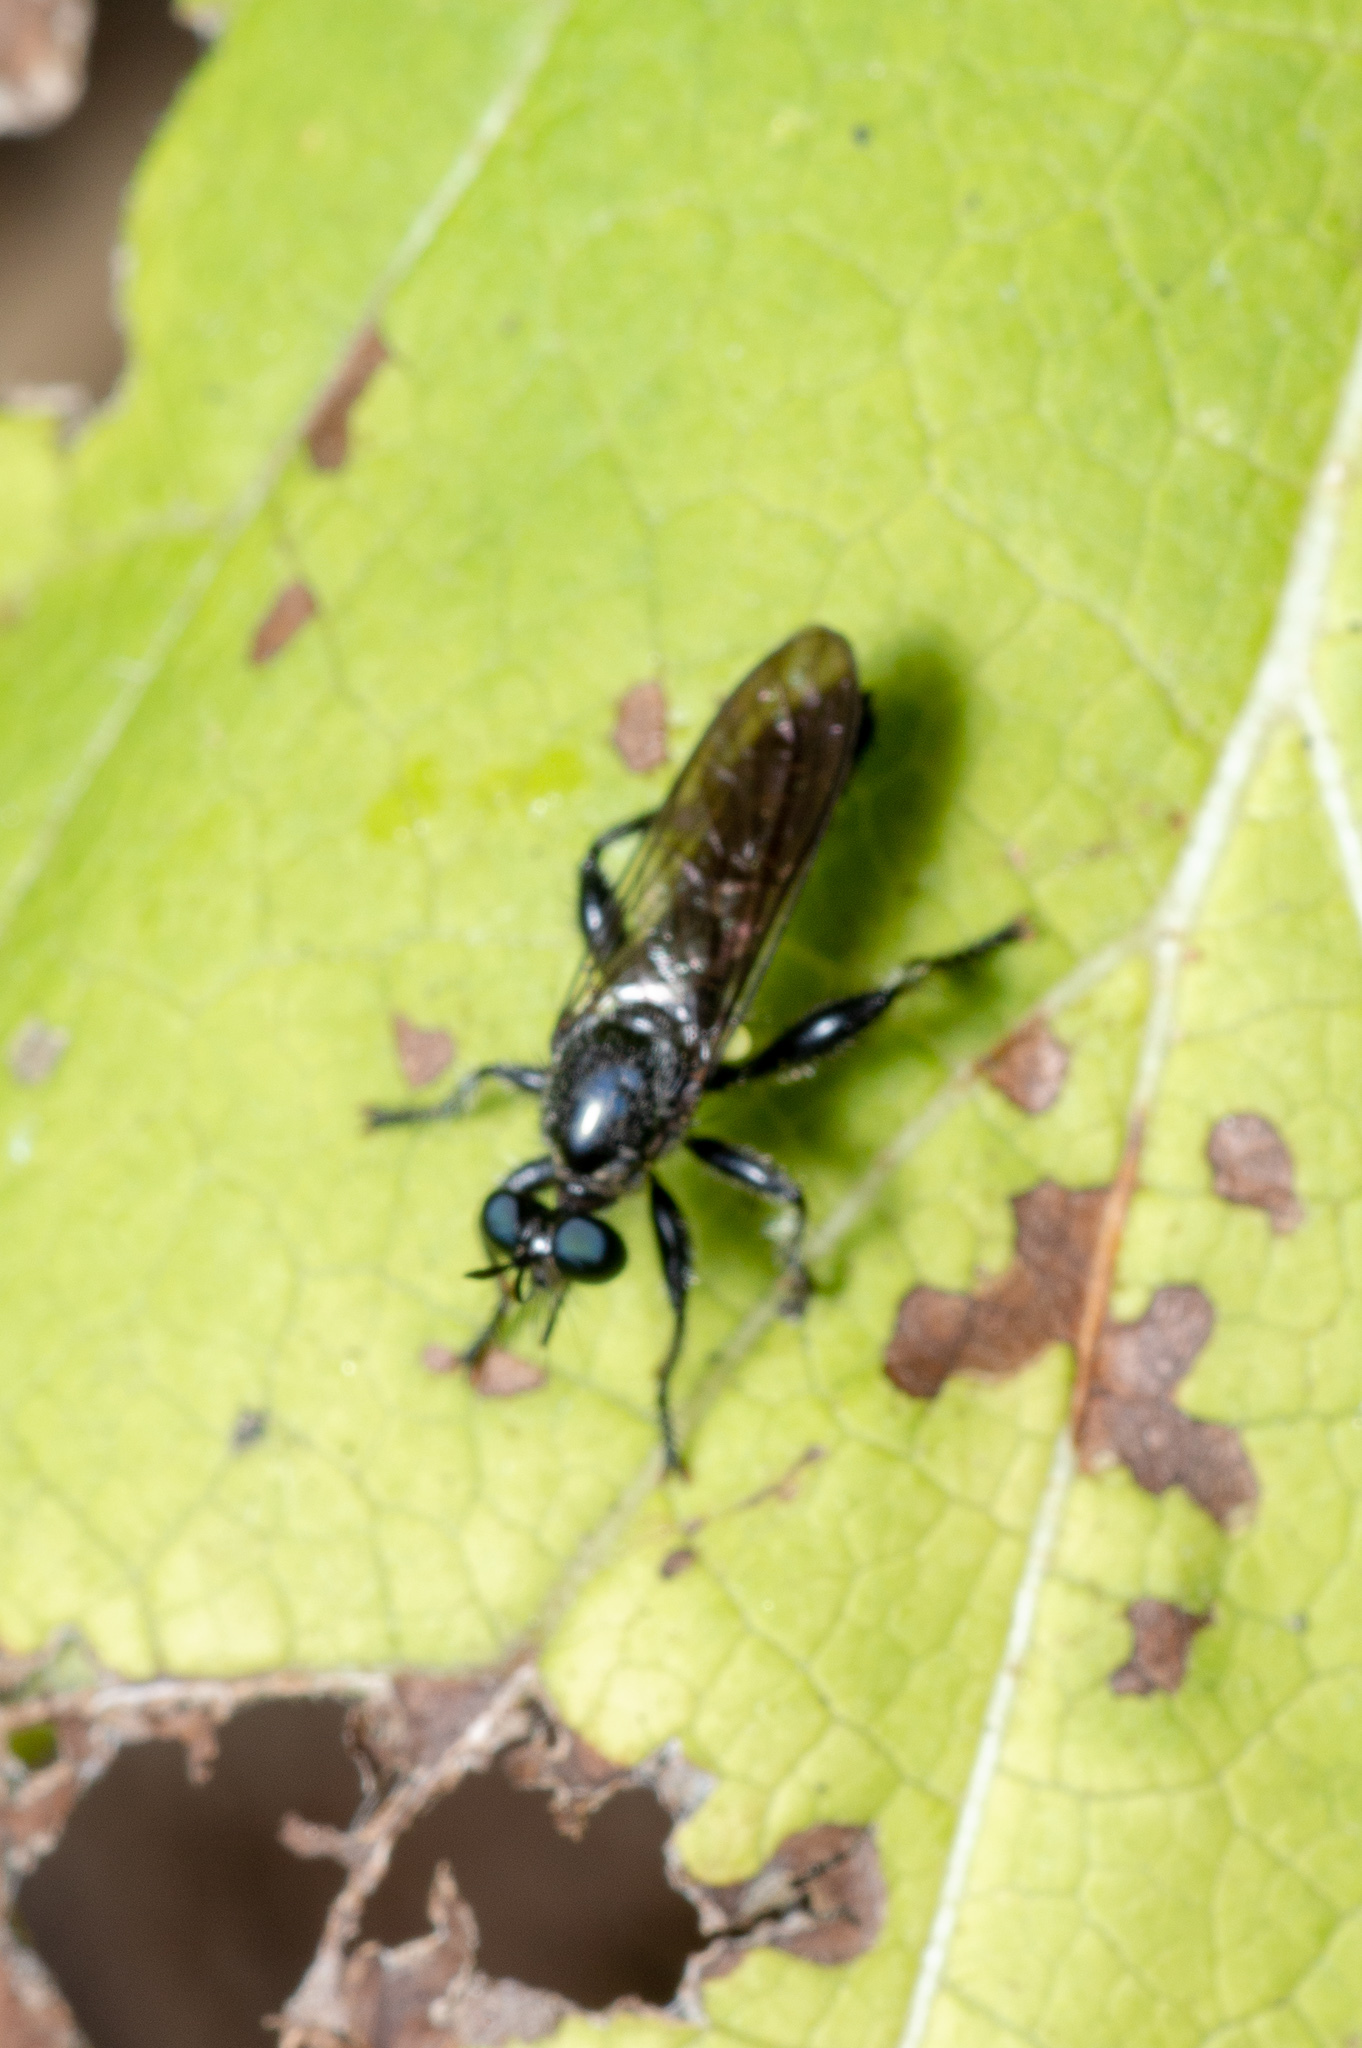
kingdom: Animalia
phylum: Arthropoda
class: Insecta
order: Diptera
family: Asilidae
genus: Laphria
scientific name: Laphria
